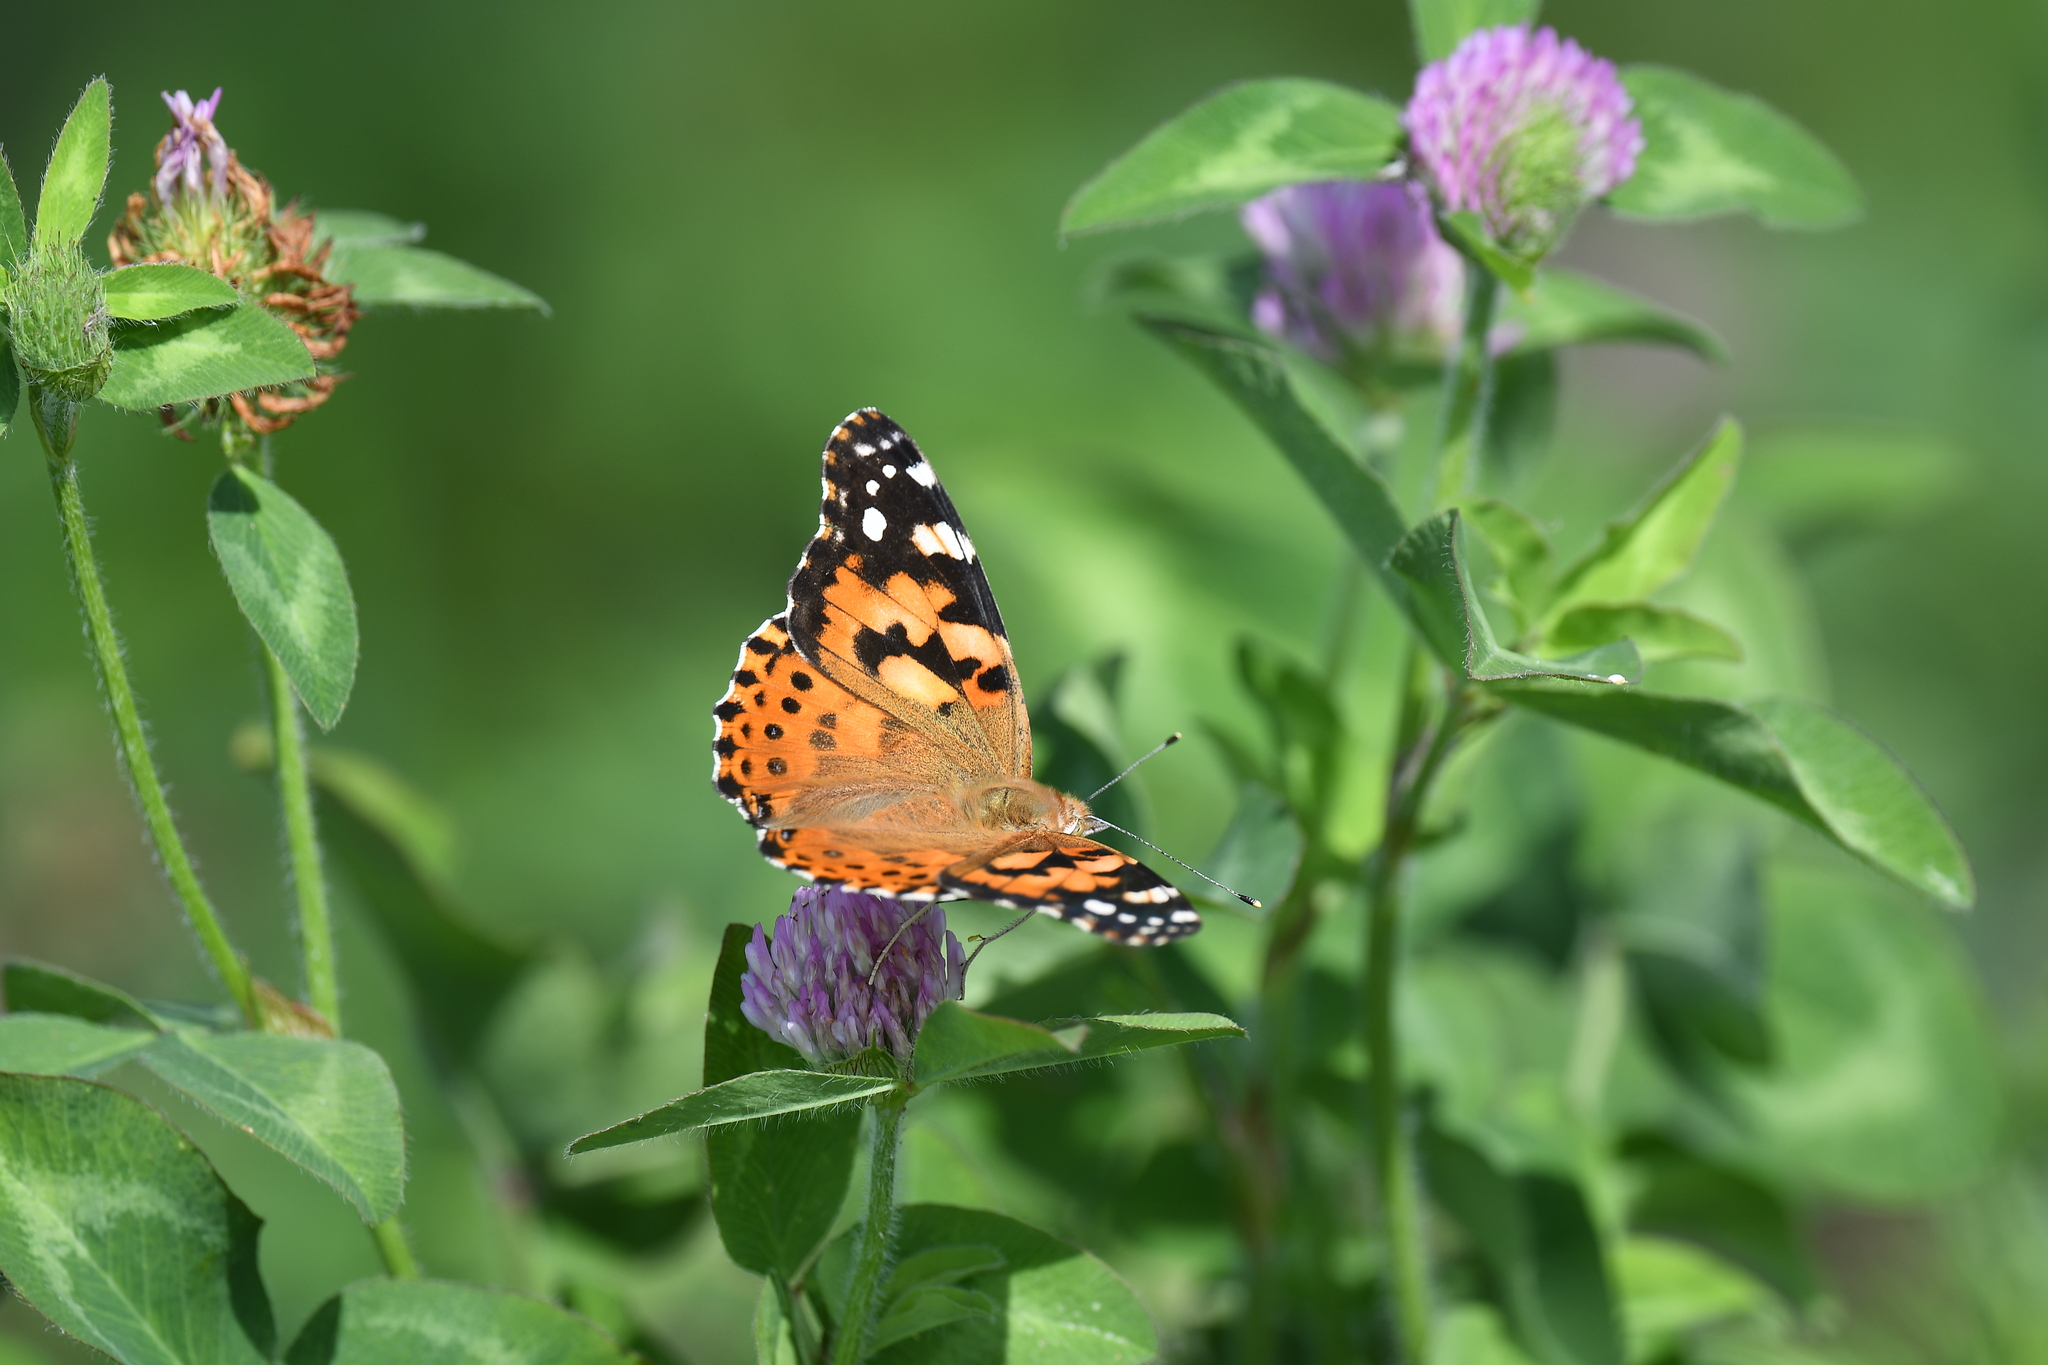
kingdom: Animalia
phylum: Arthropoda
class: Insecta
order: Lepidoptera
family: Nymphalidae
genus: Vanessa
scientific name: Vanessa cardui
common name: Painted lady
